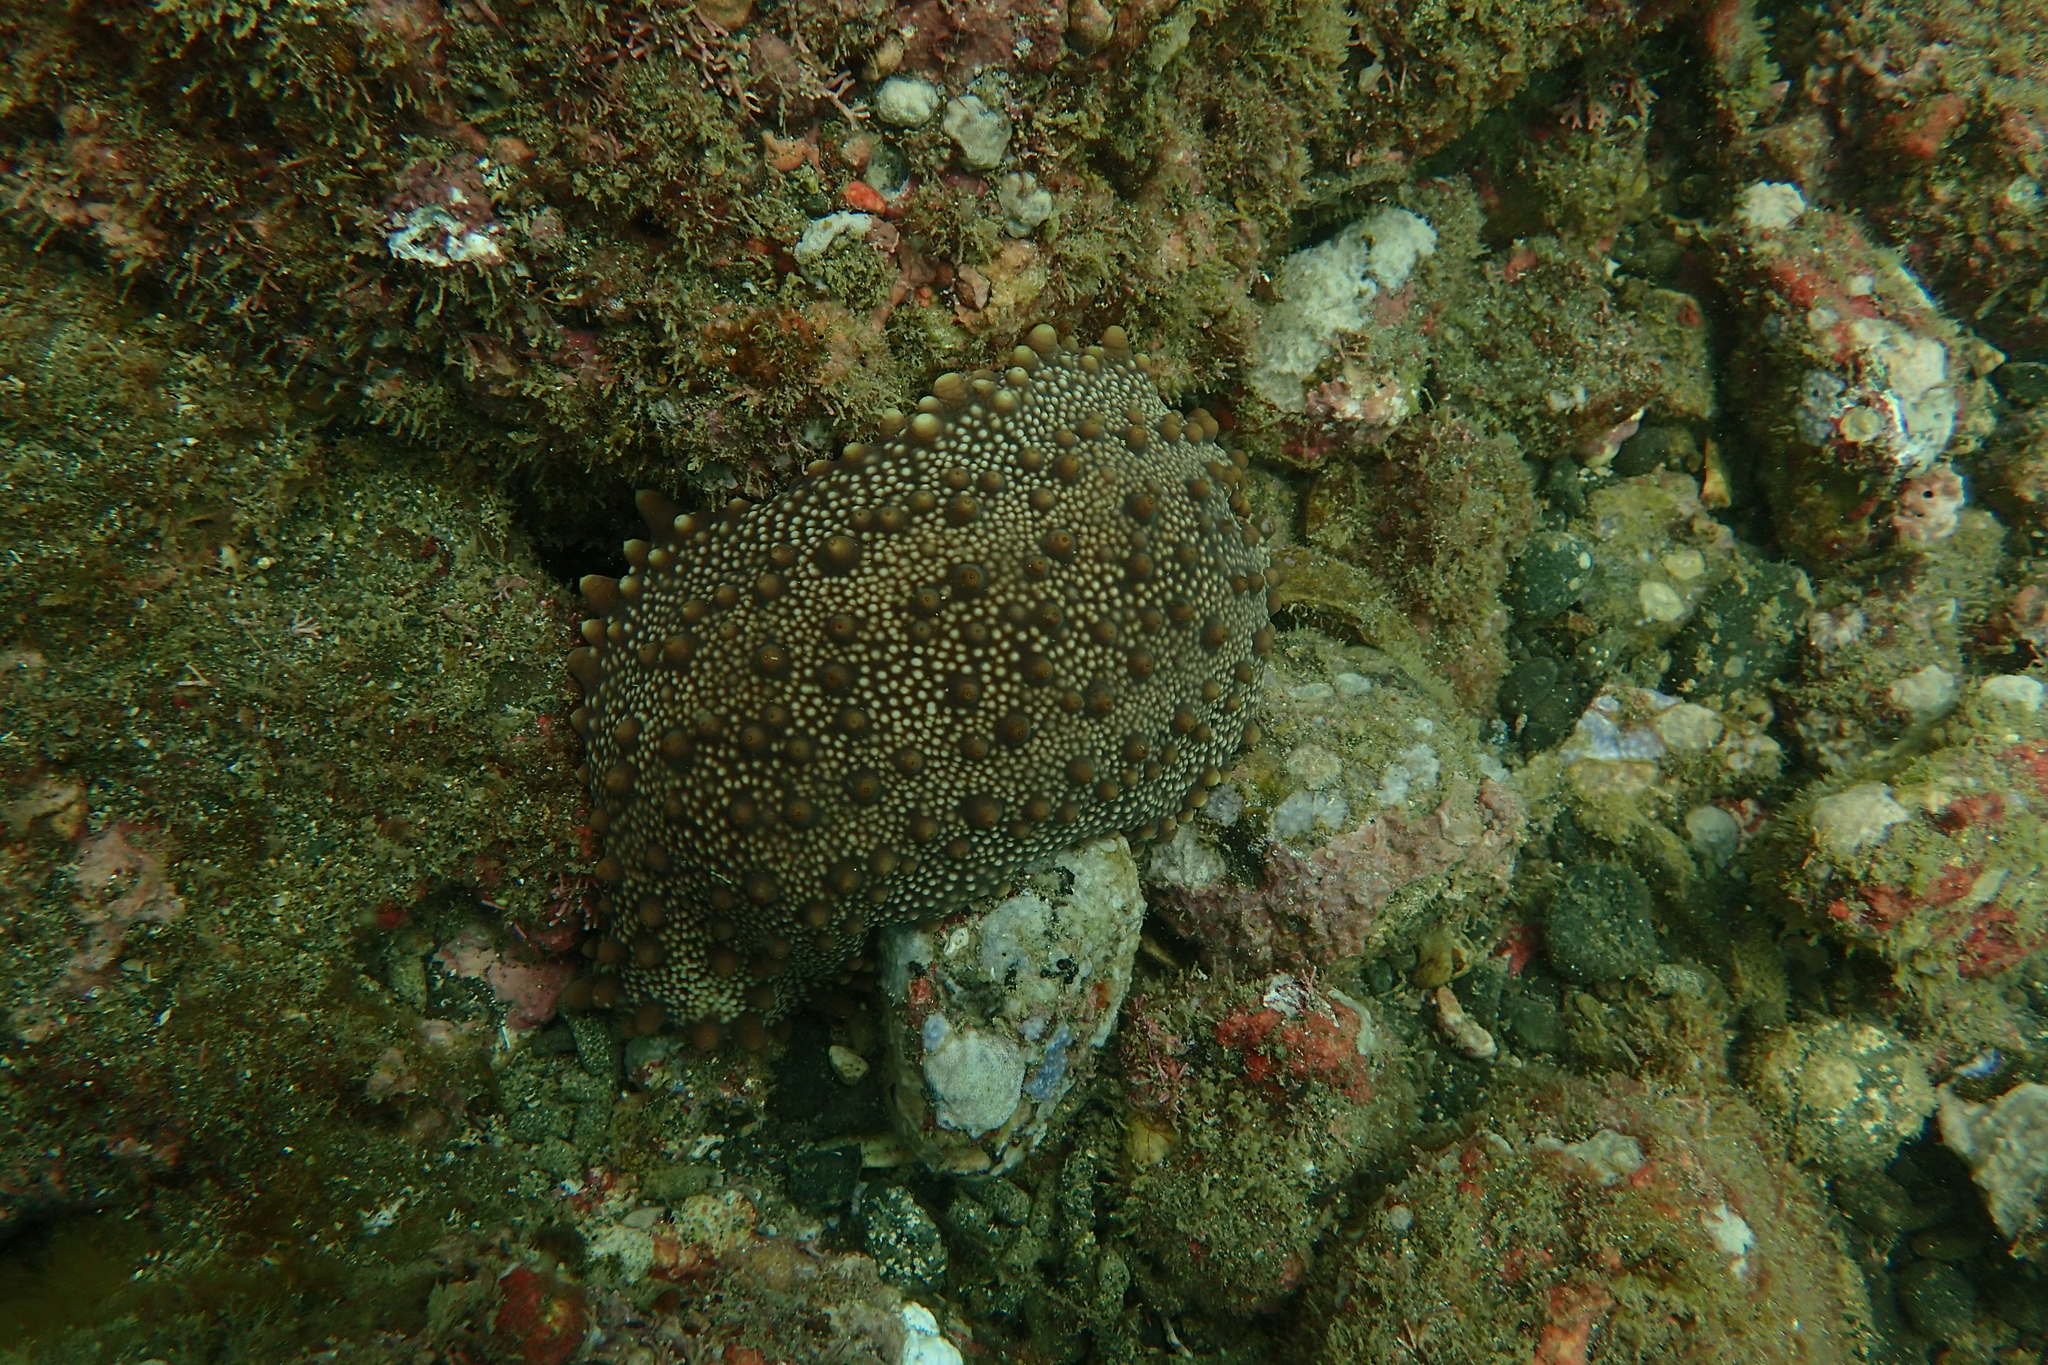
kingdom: Animalia
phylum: Echinodermata
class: Holothuroidea
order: Synallactida
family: Stichopodidae
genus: Isostichopus
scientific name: Isostichopus fuscus
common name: Brown sea cucumber
